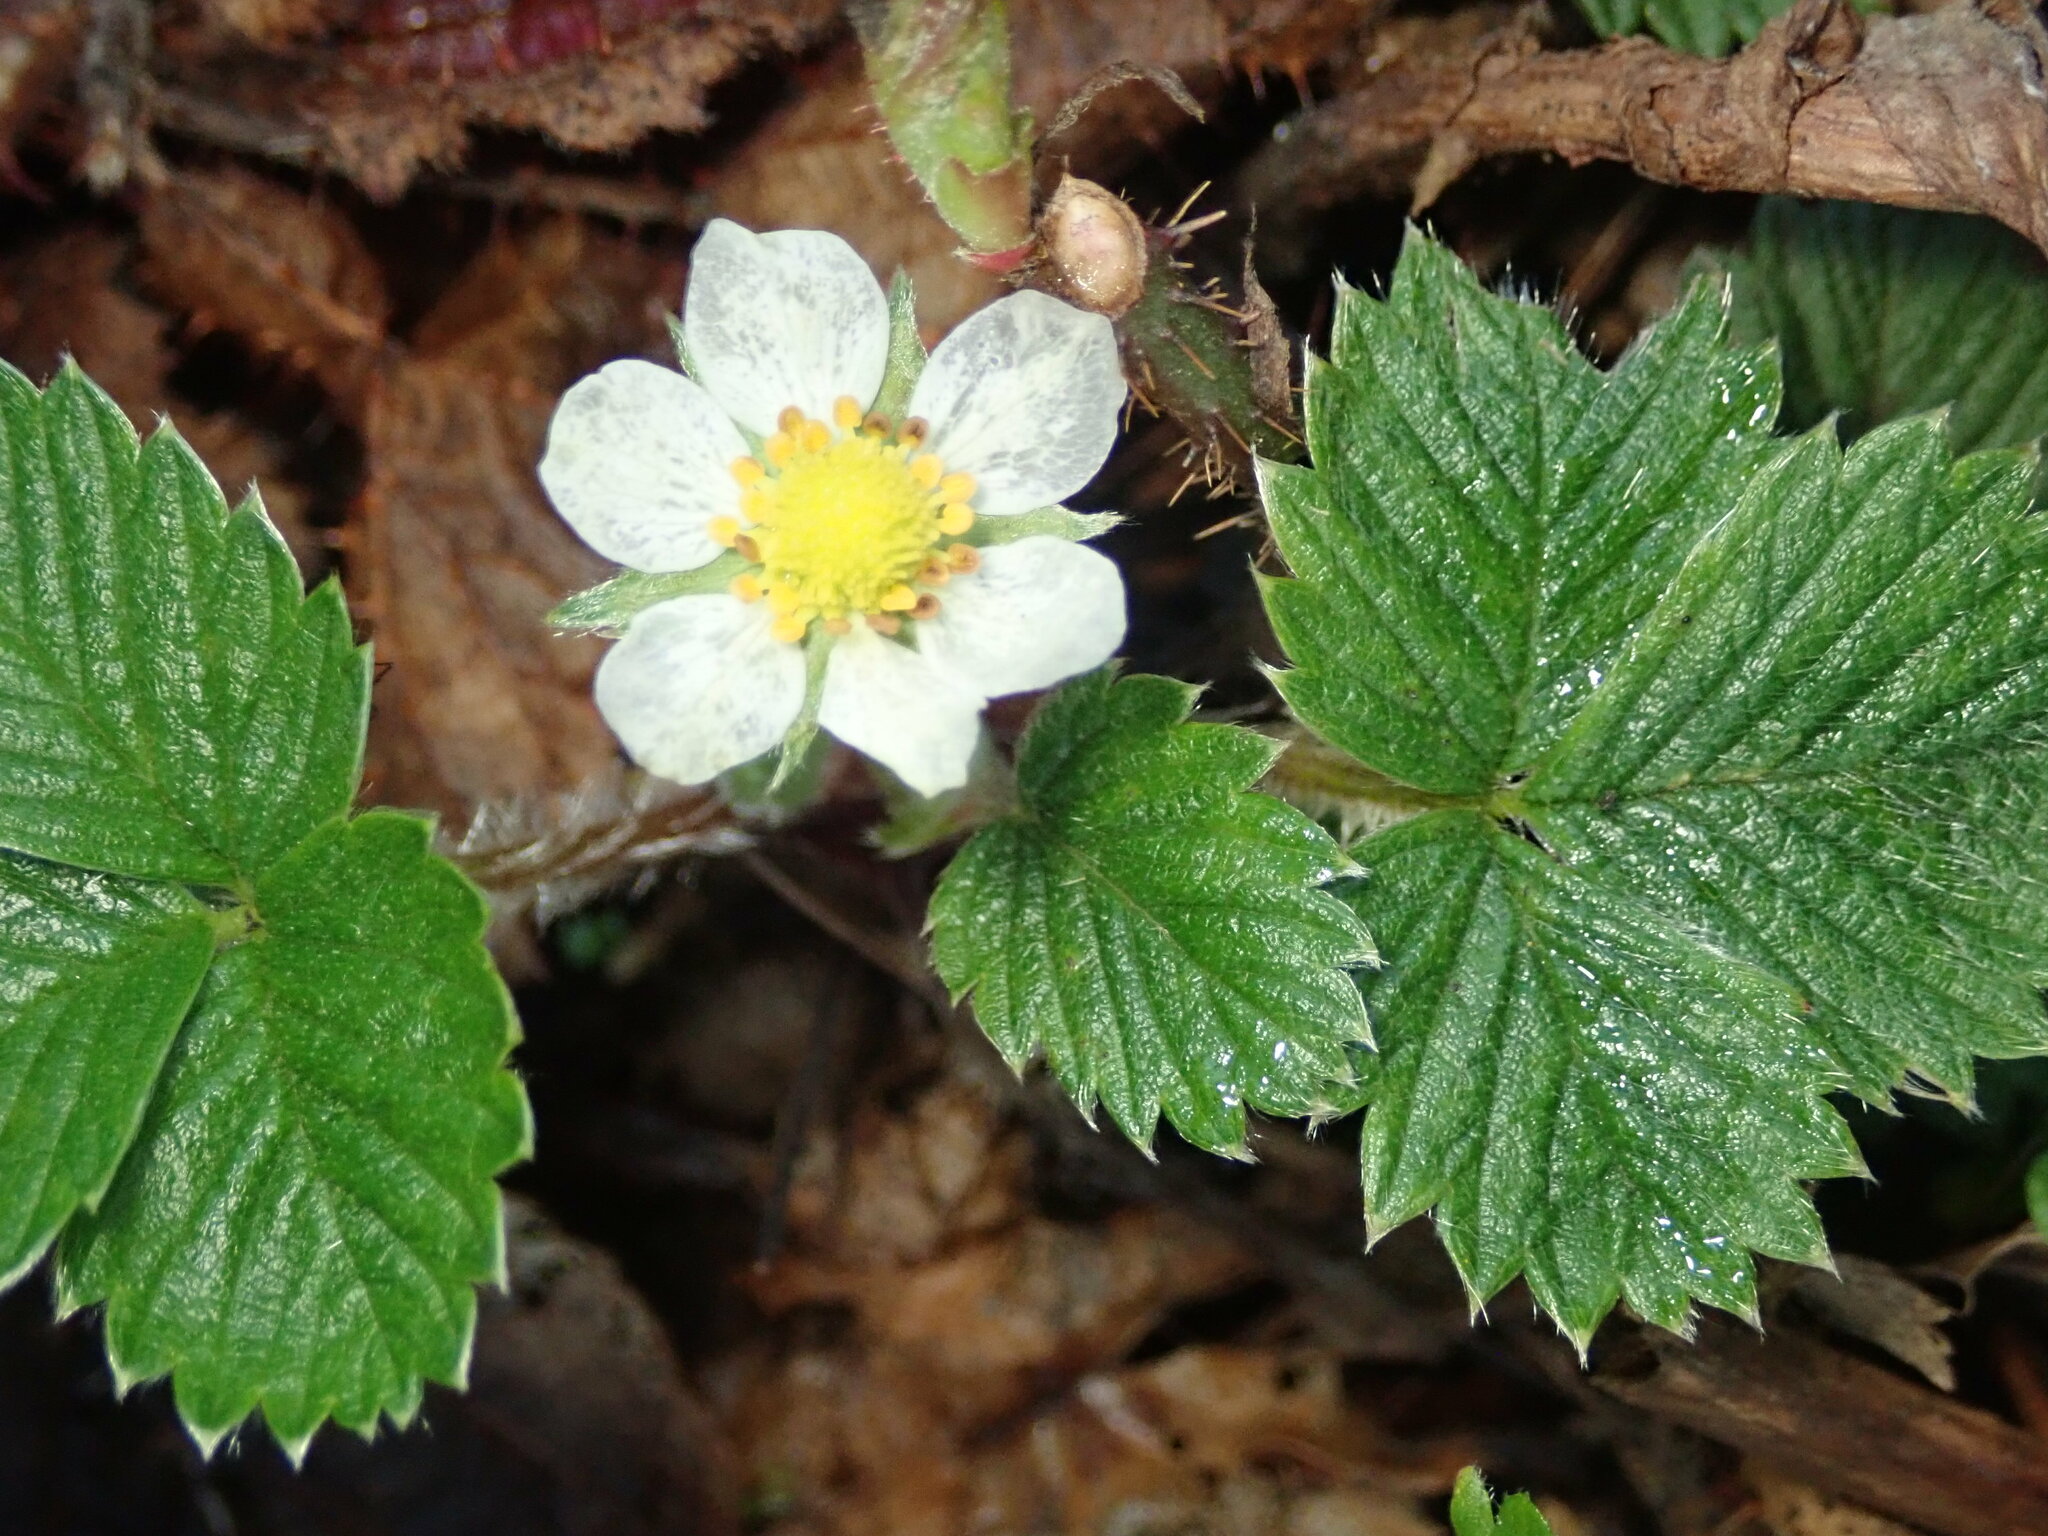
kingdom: Plantae
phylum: Tracheophyta
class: Magnoliopsida
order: Rosales
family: Rosaceae
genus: Fragaria
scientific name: Fragaria vesca
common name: Wild strawberry
